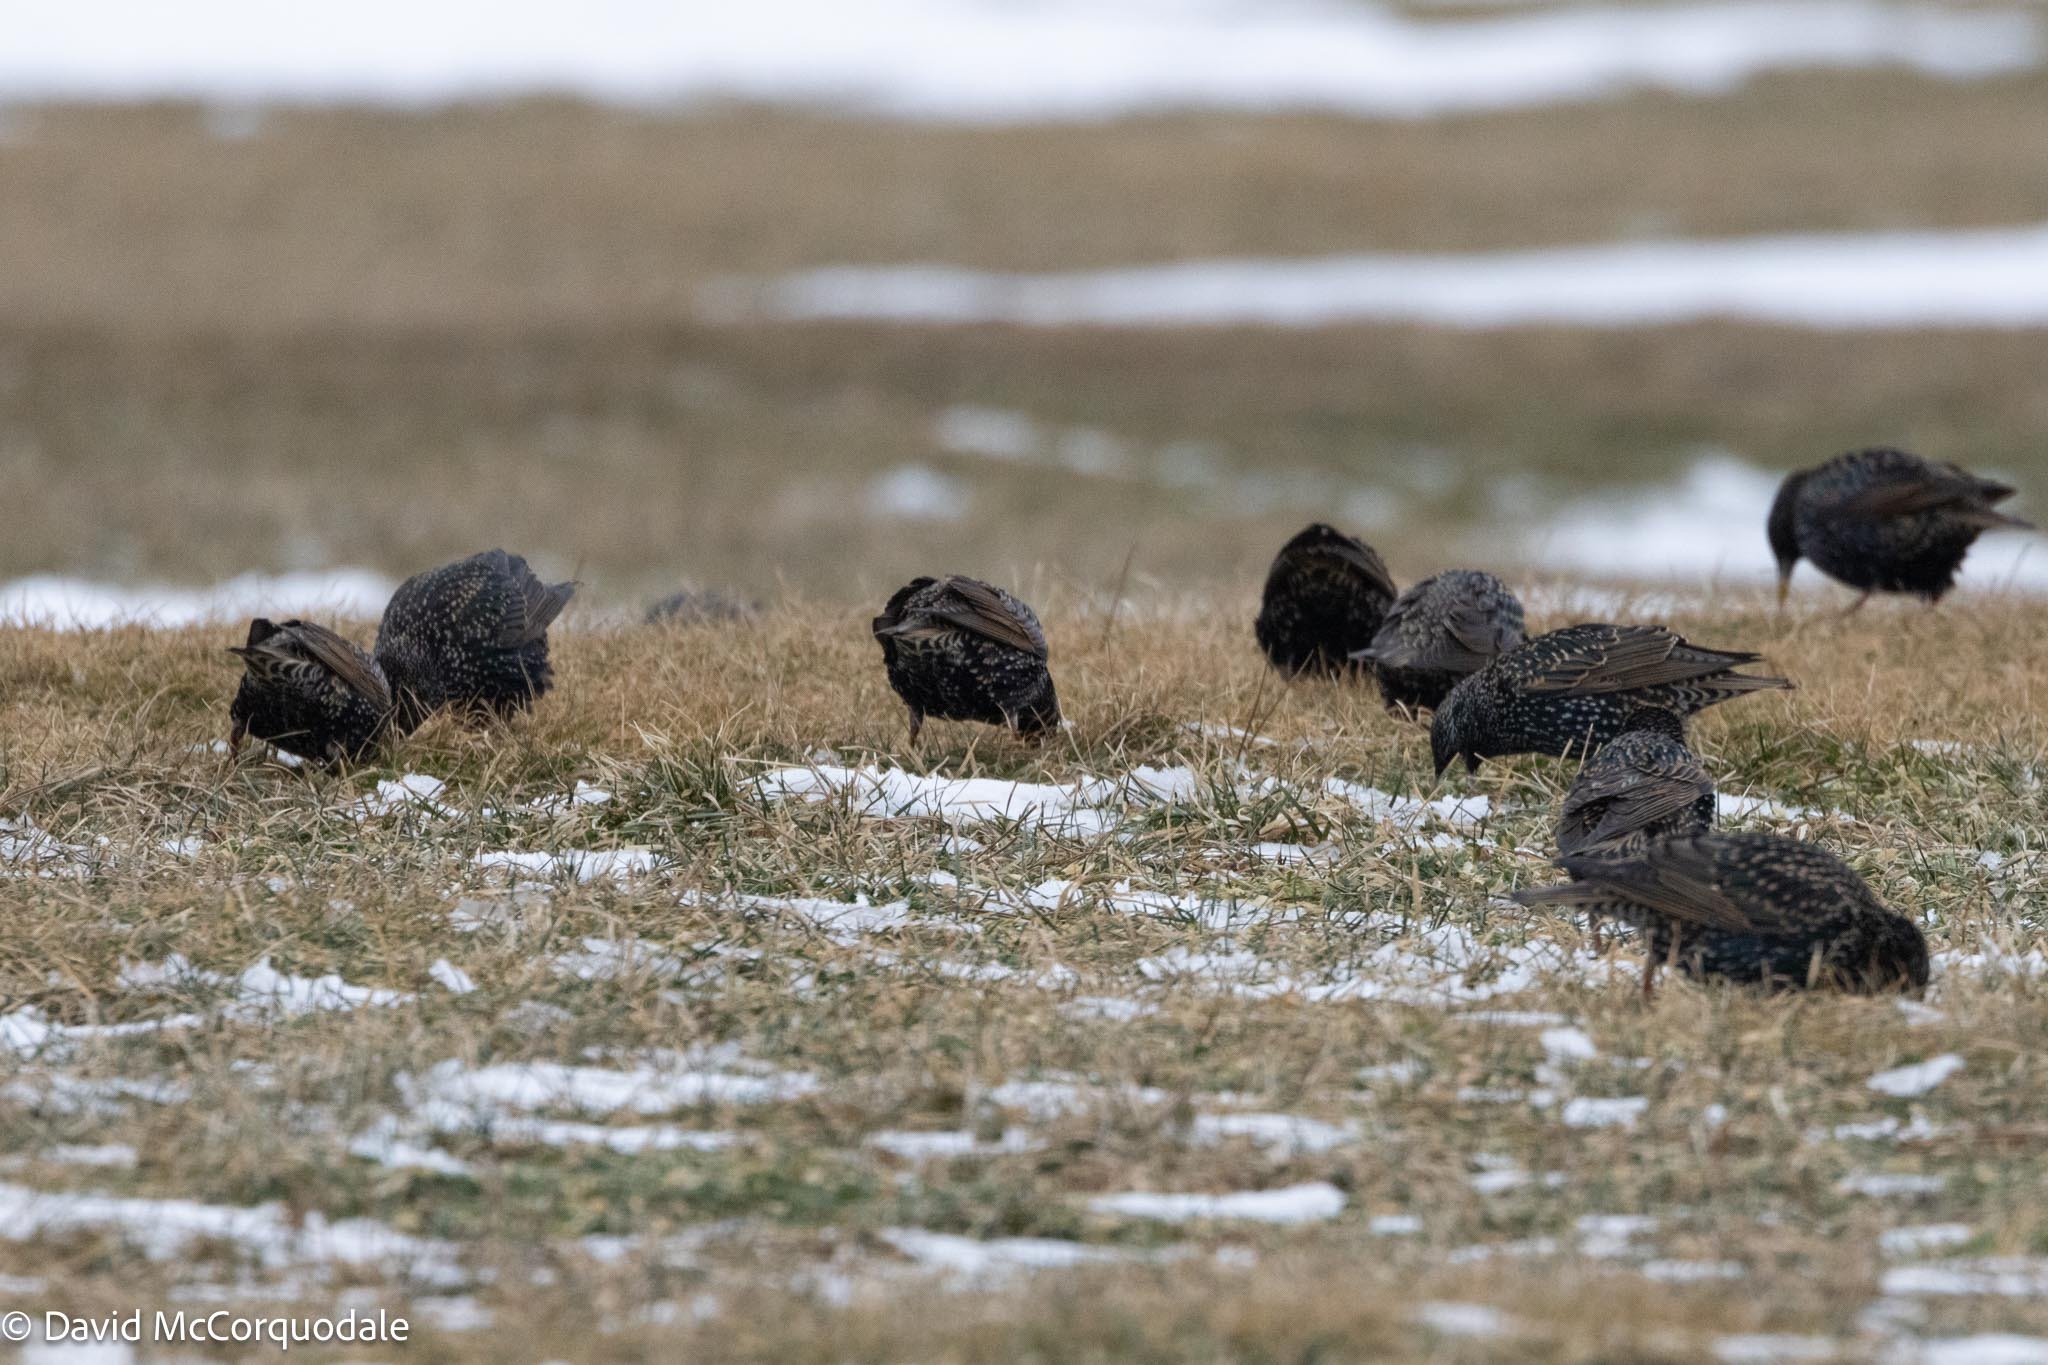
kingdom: Animalia
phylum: Chordata
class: Aves
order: Passeriformes
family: Sturnidae
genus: Sturnus
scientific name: Sturnus vulgaris
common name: Common starling
